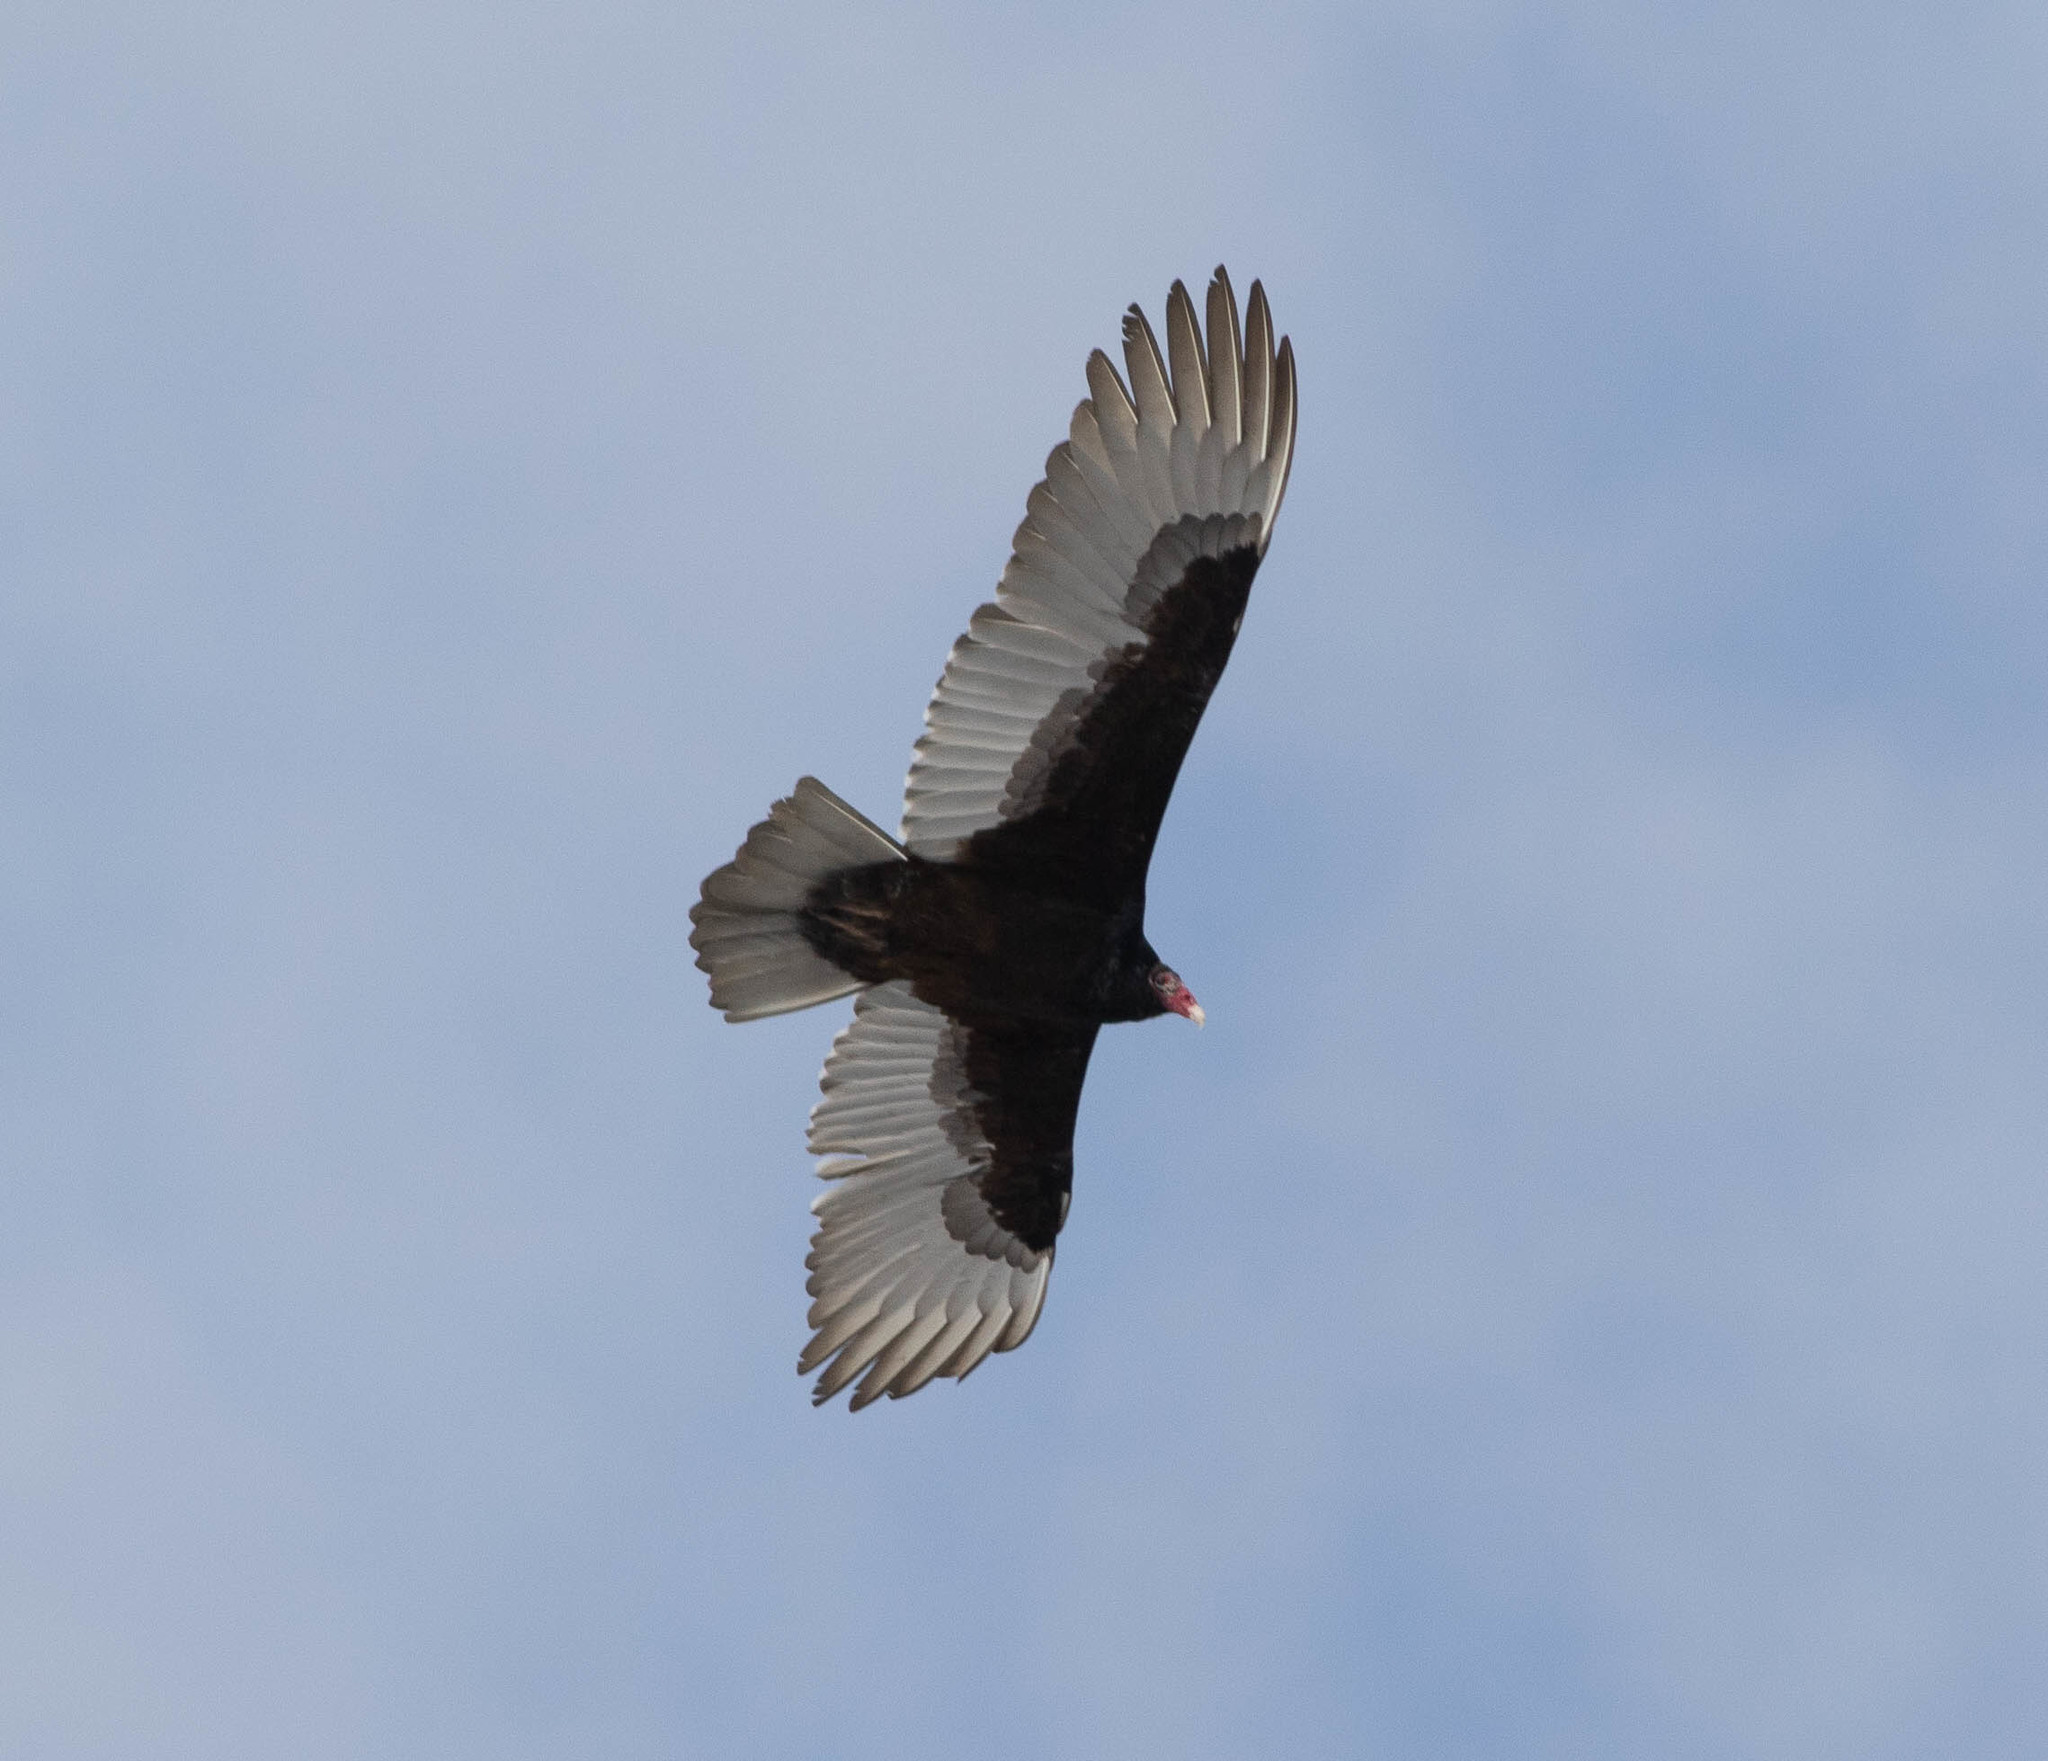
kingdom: Animalia
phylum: Chordata
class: Aves
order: Accipitriformes
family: Cathartidae
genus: Cathartes
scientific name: Cathartes aura
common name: Turkey vulture
